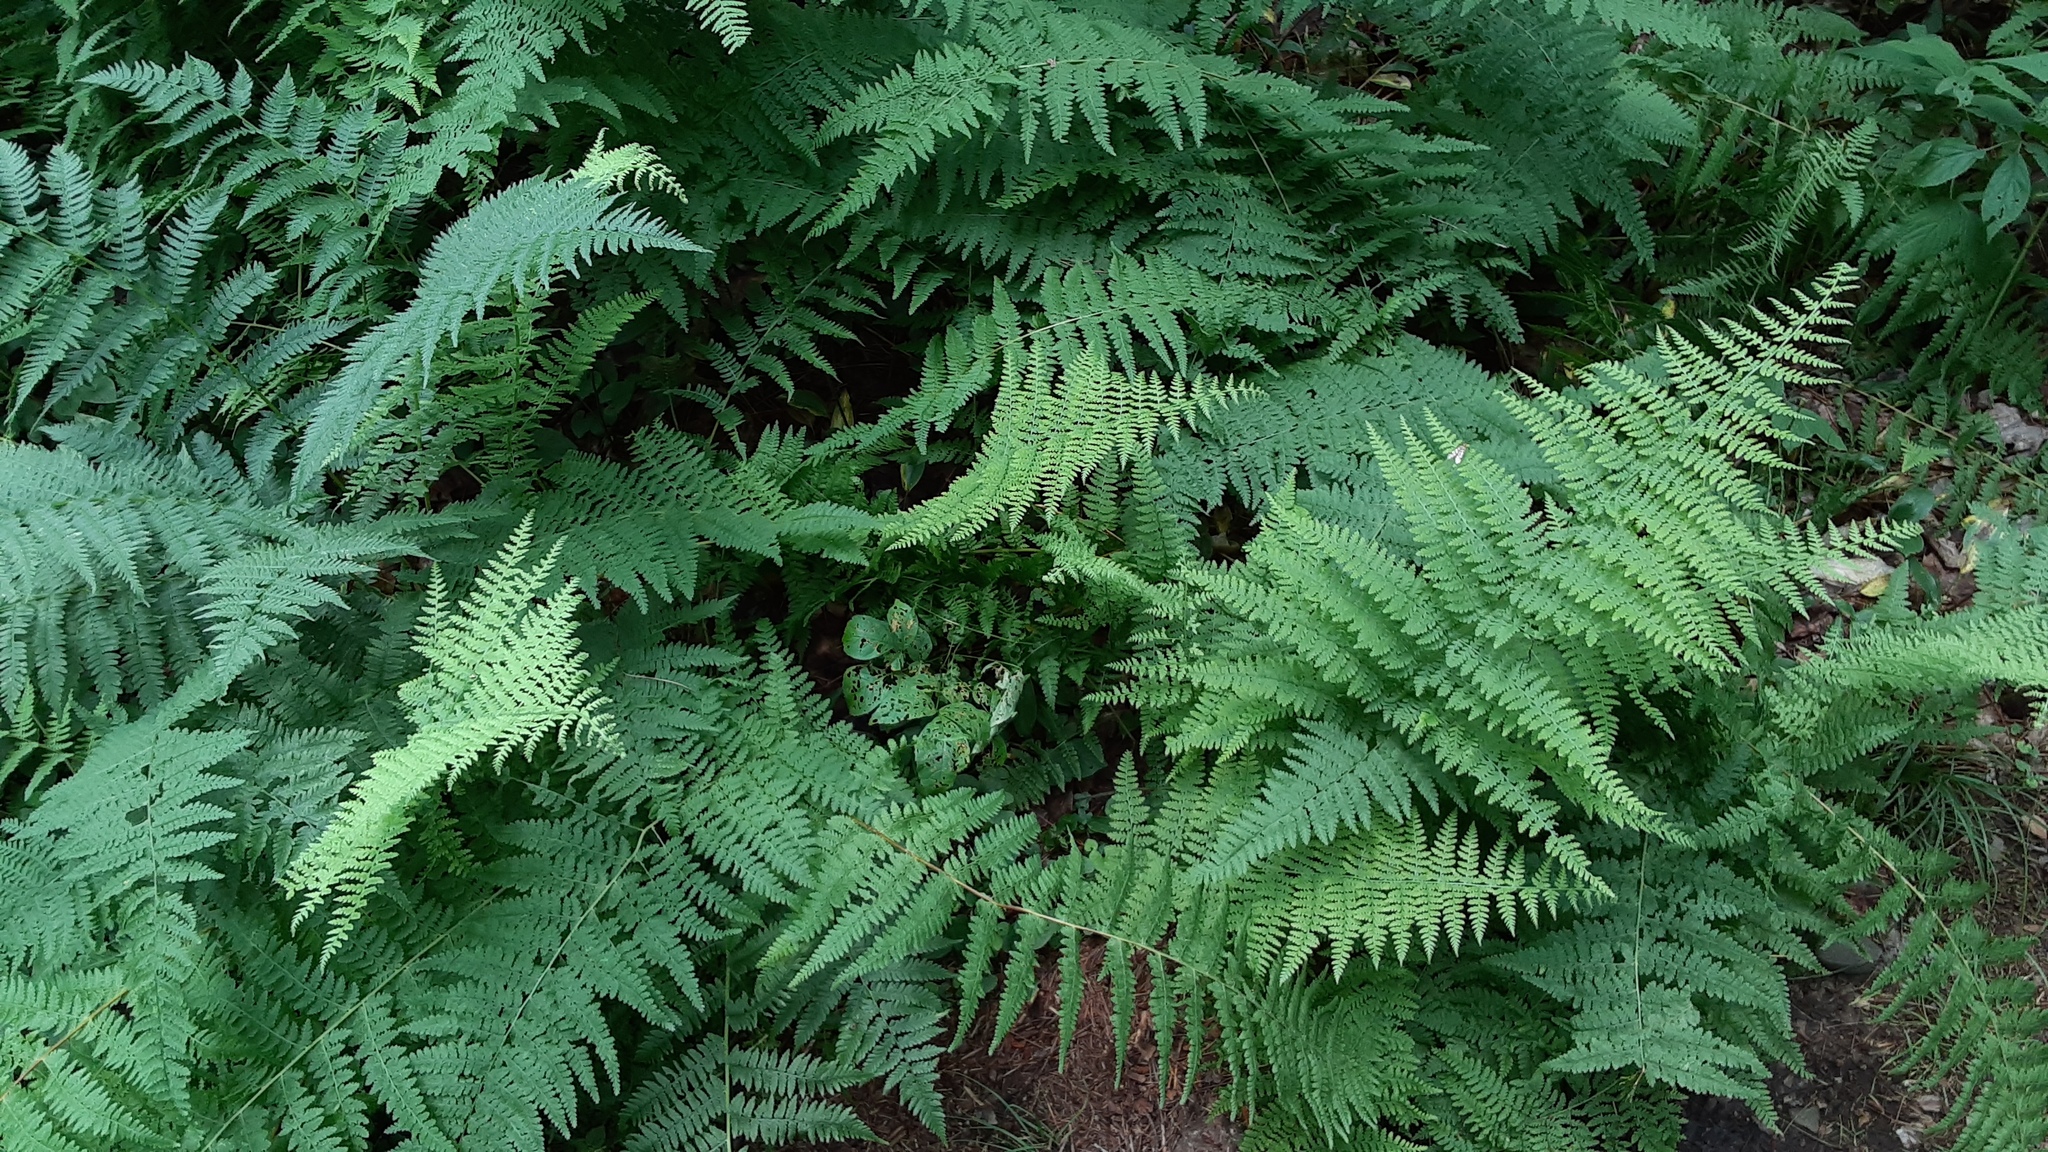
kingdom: Plantae
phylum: Tracheophyta
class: Polypodiopsida
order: Polypodiales
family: Dennstaedtiaceae
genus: Sitobolium
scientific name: Sitobolium punctilobum
